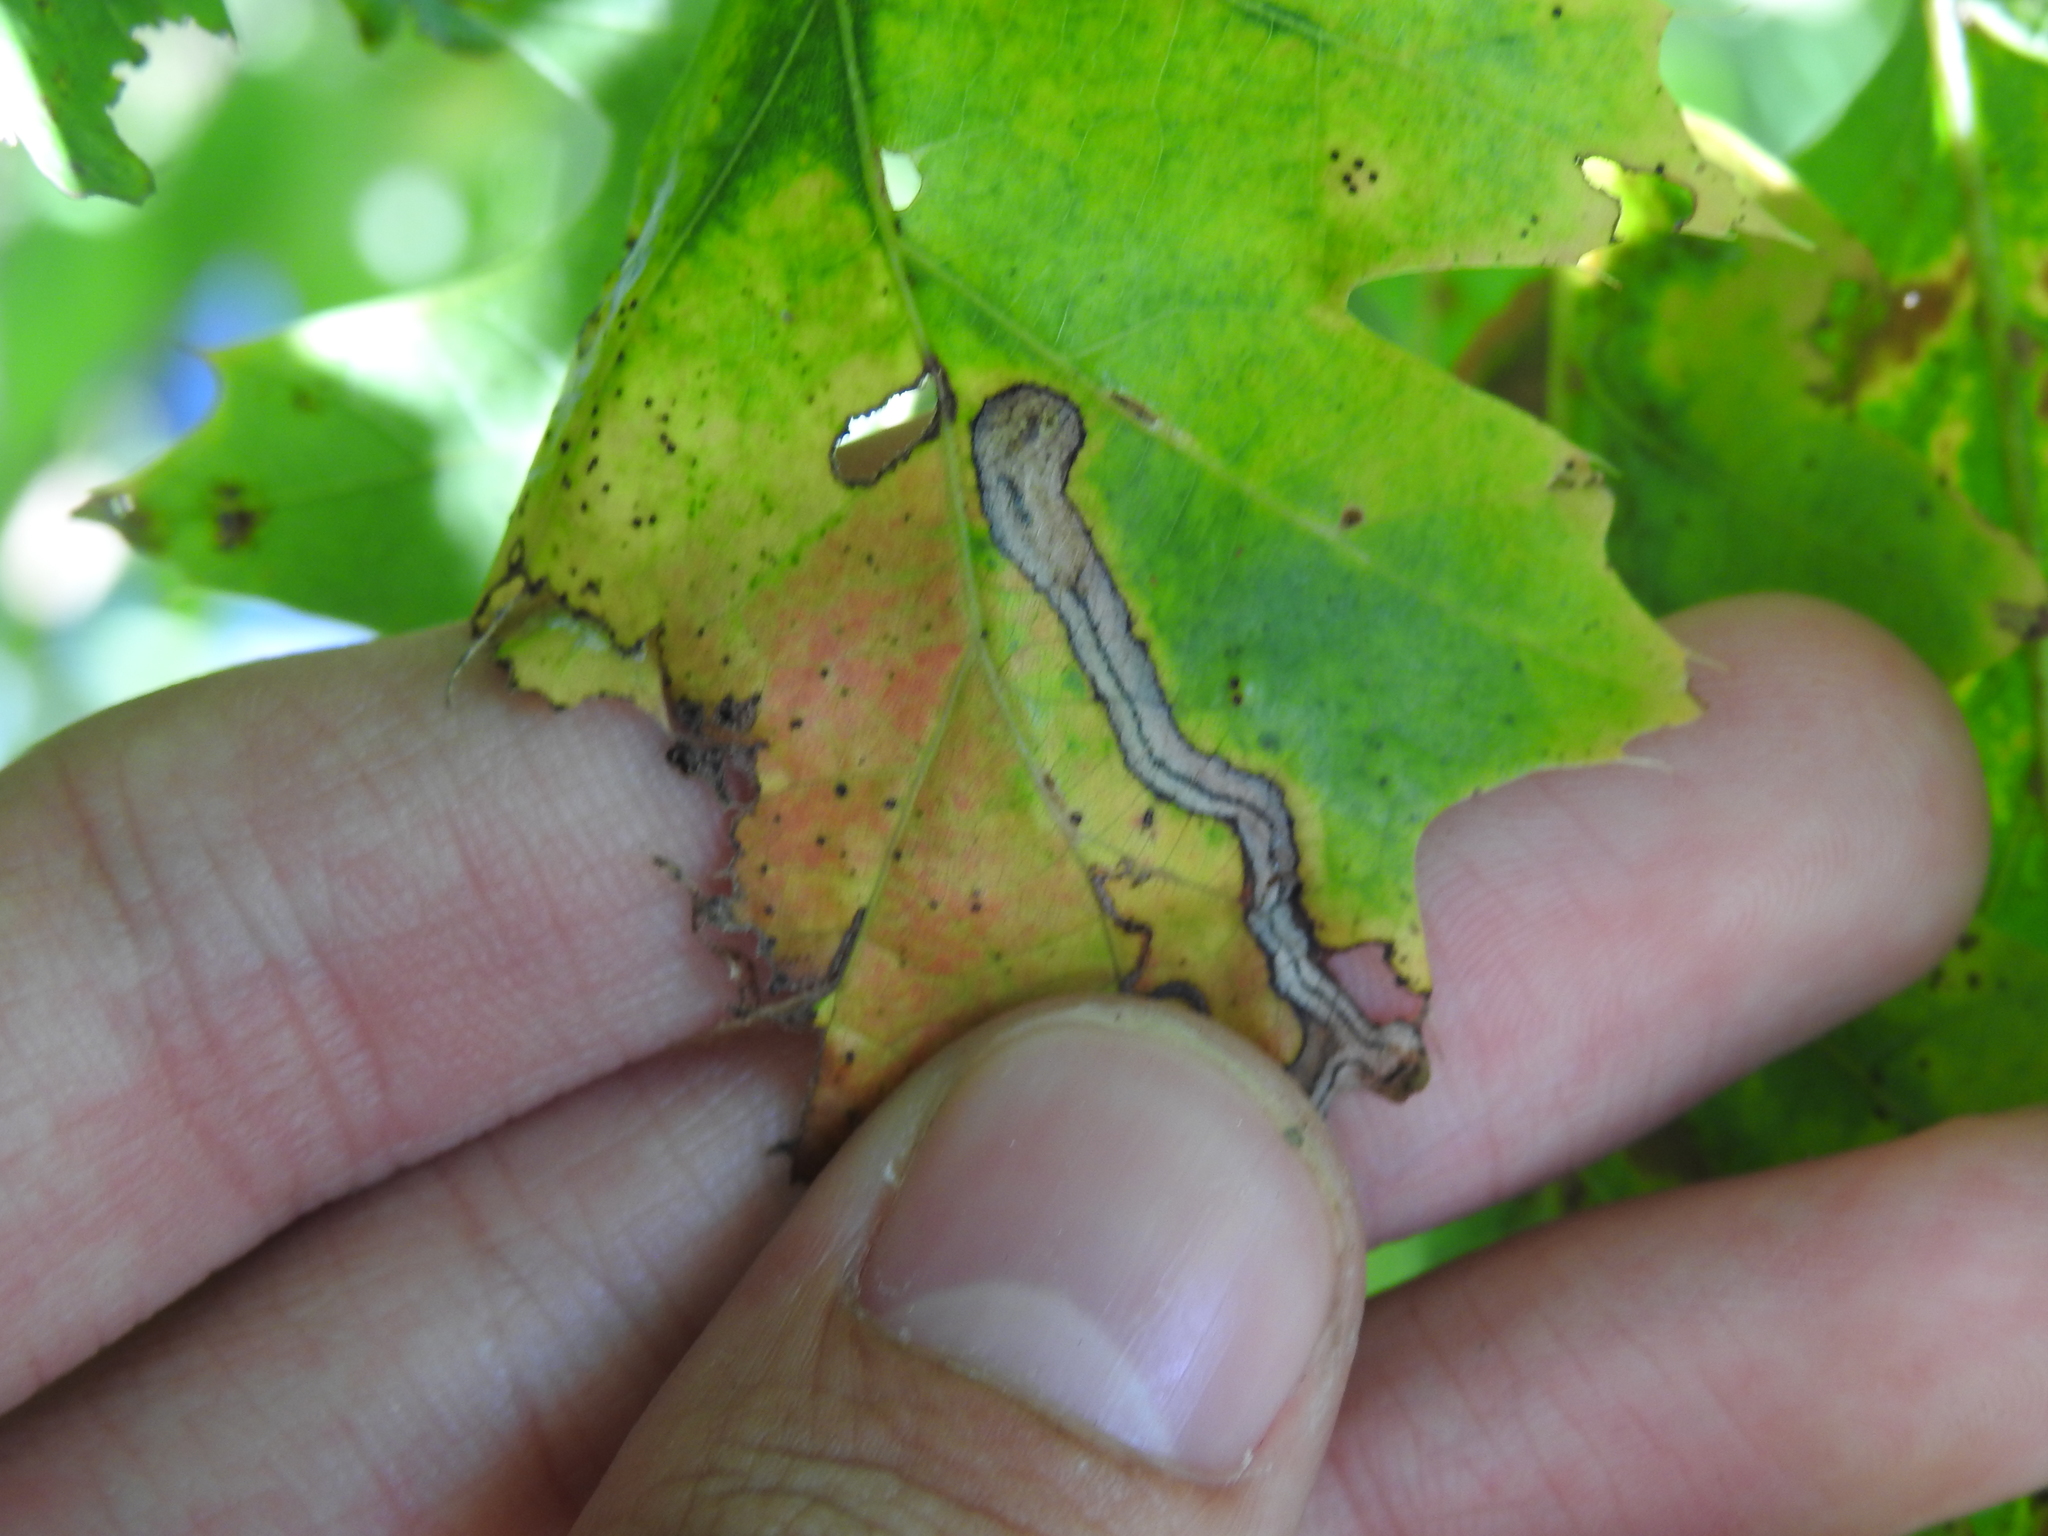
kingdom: Animalia
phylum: Arthropoda
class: Insecta
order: Lepidoptera
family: Nepticulidae
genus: Stigmella
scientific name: Stigmella quercipulchella
